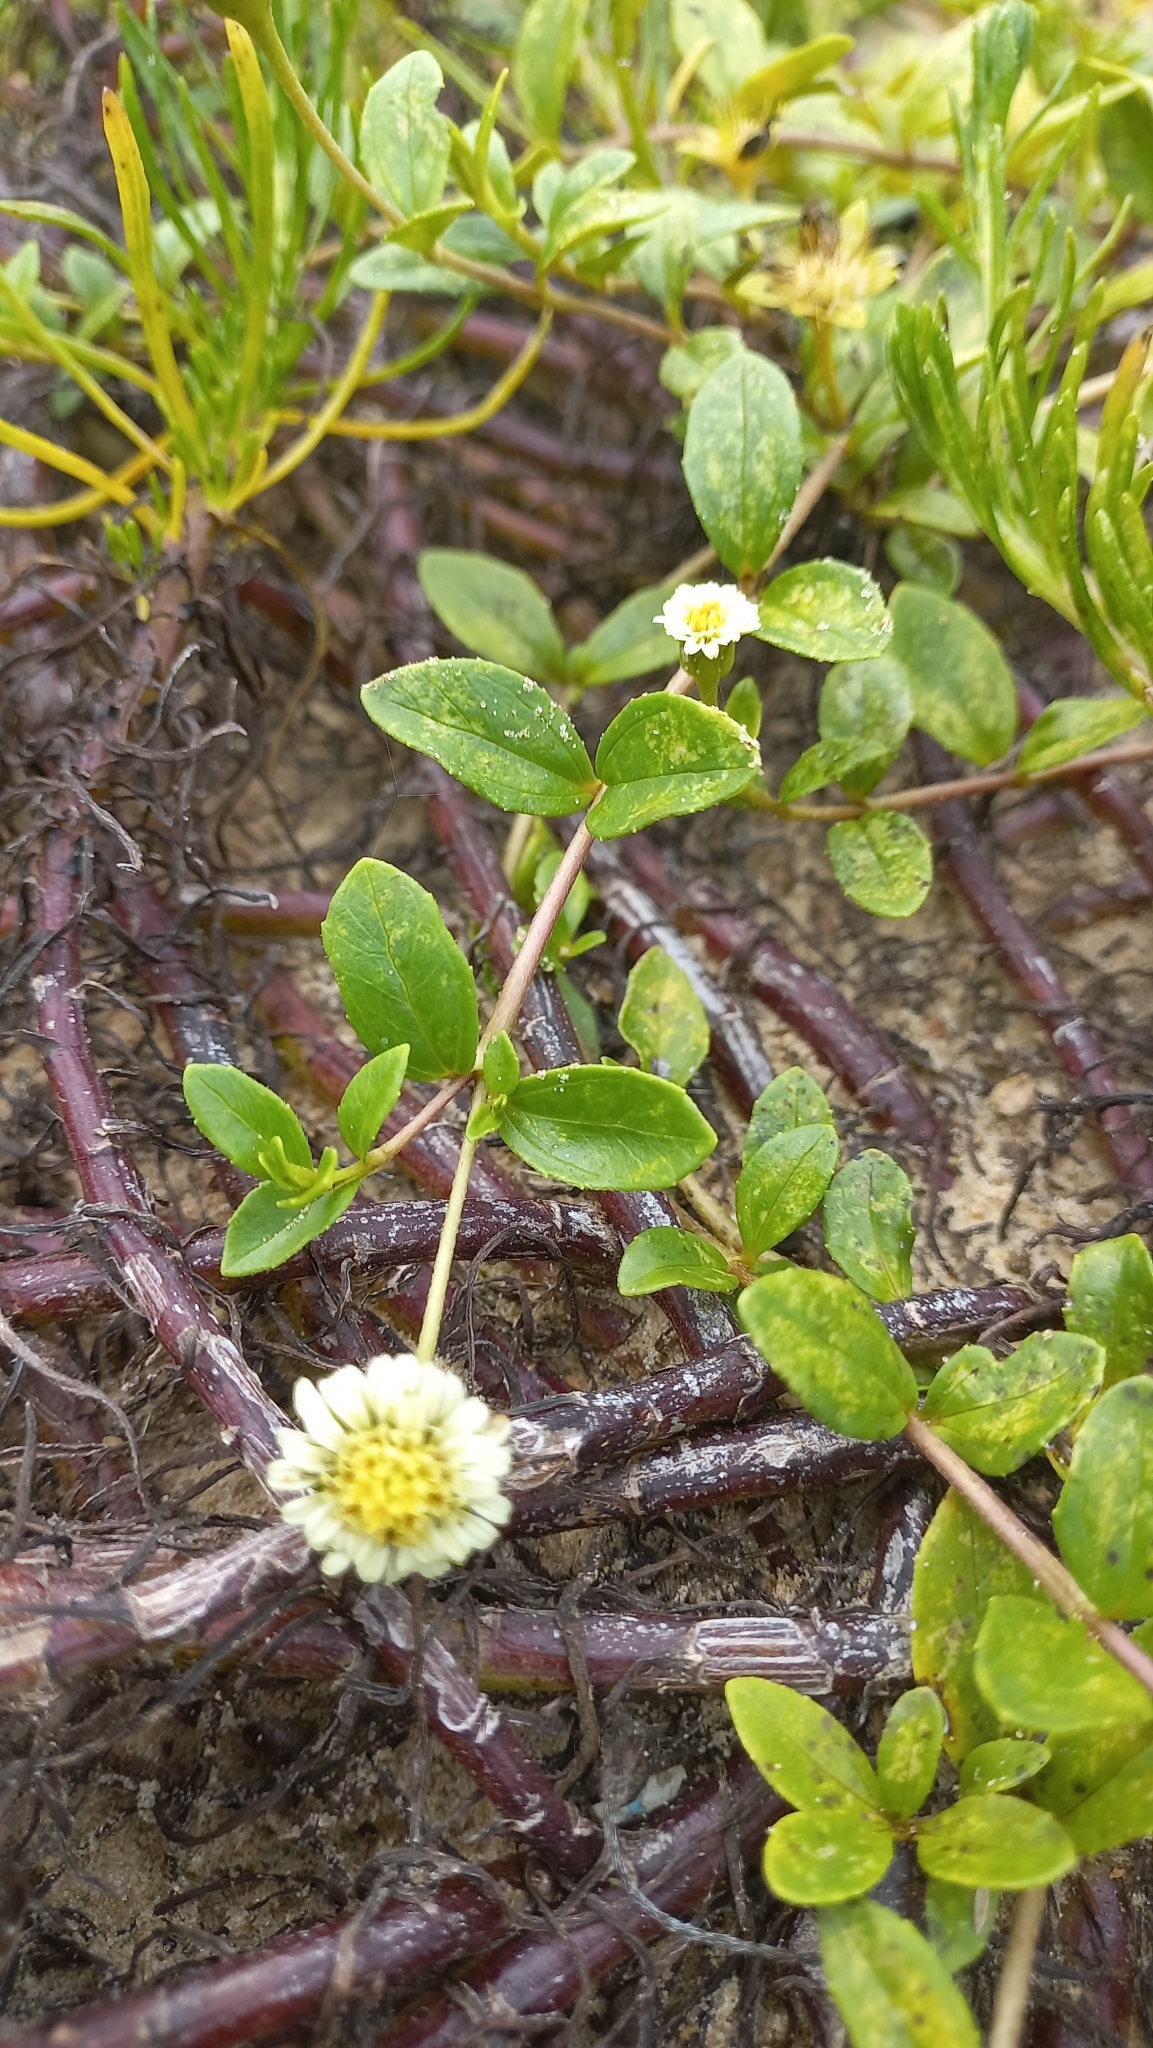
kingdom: Plantae
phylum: Tracheophyta
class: Magnoliopsida
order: Asterales
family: Asteraceae
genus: Eclipta
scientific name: Eclipta elliptica
